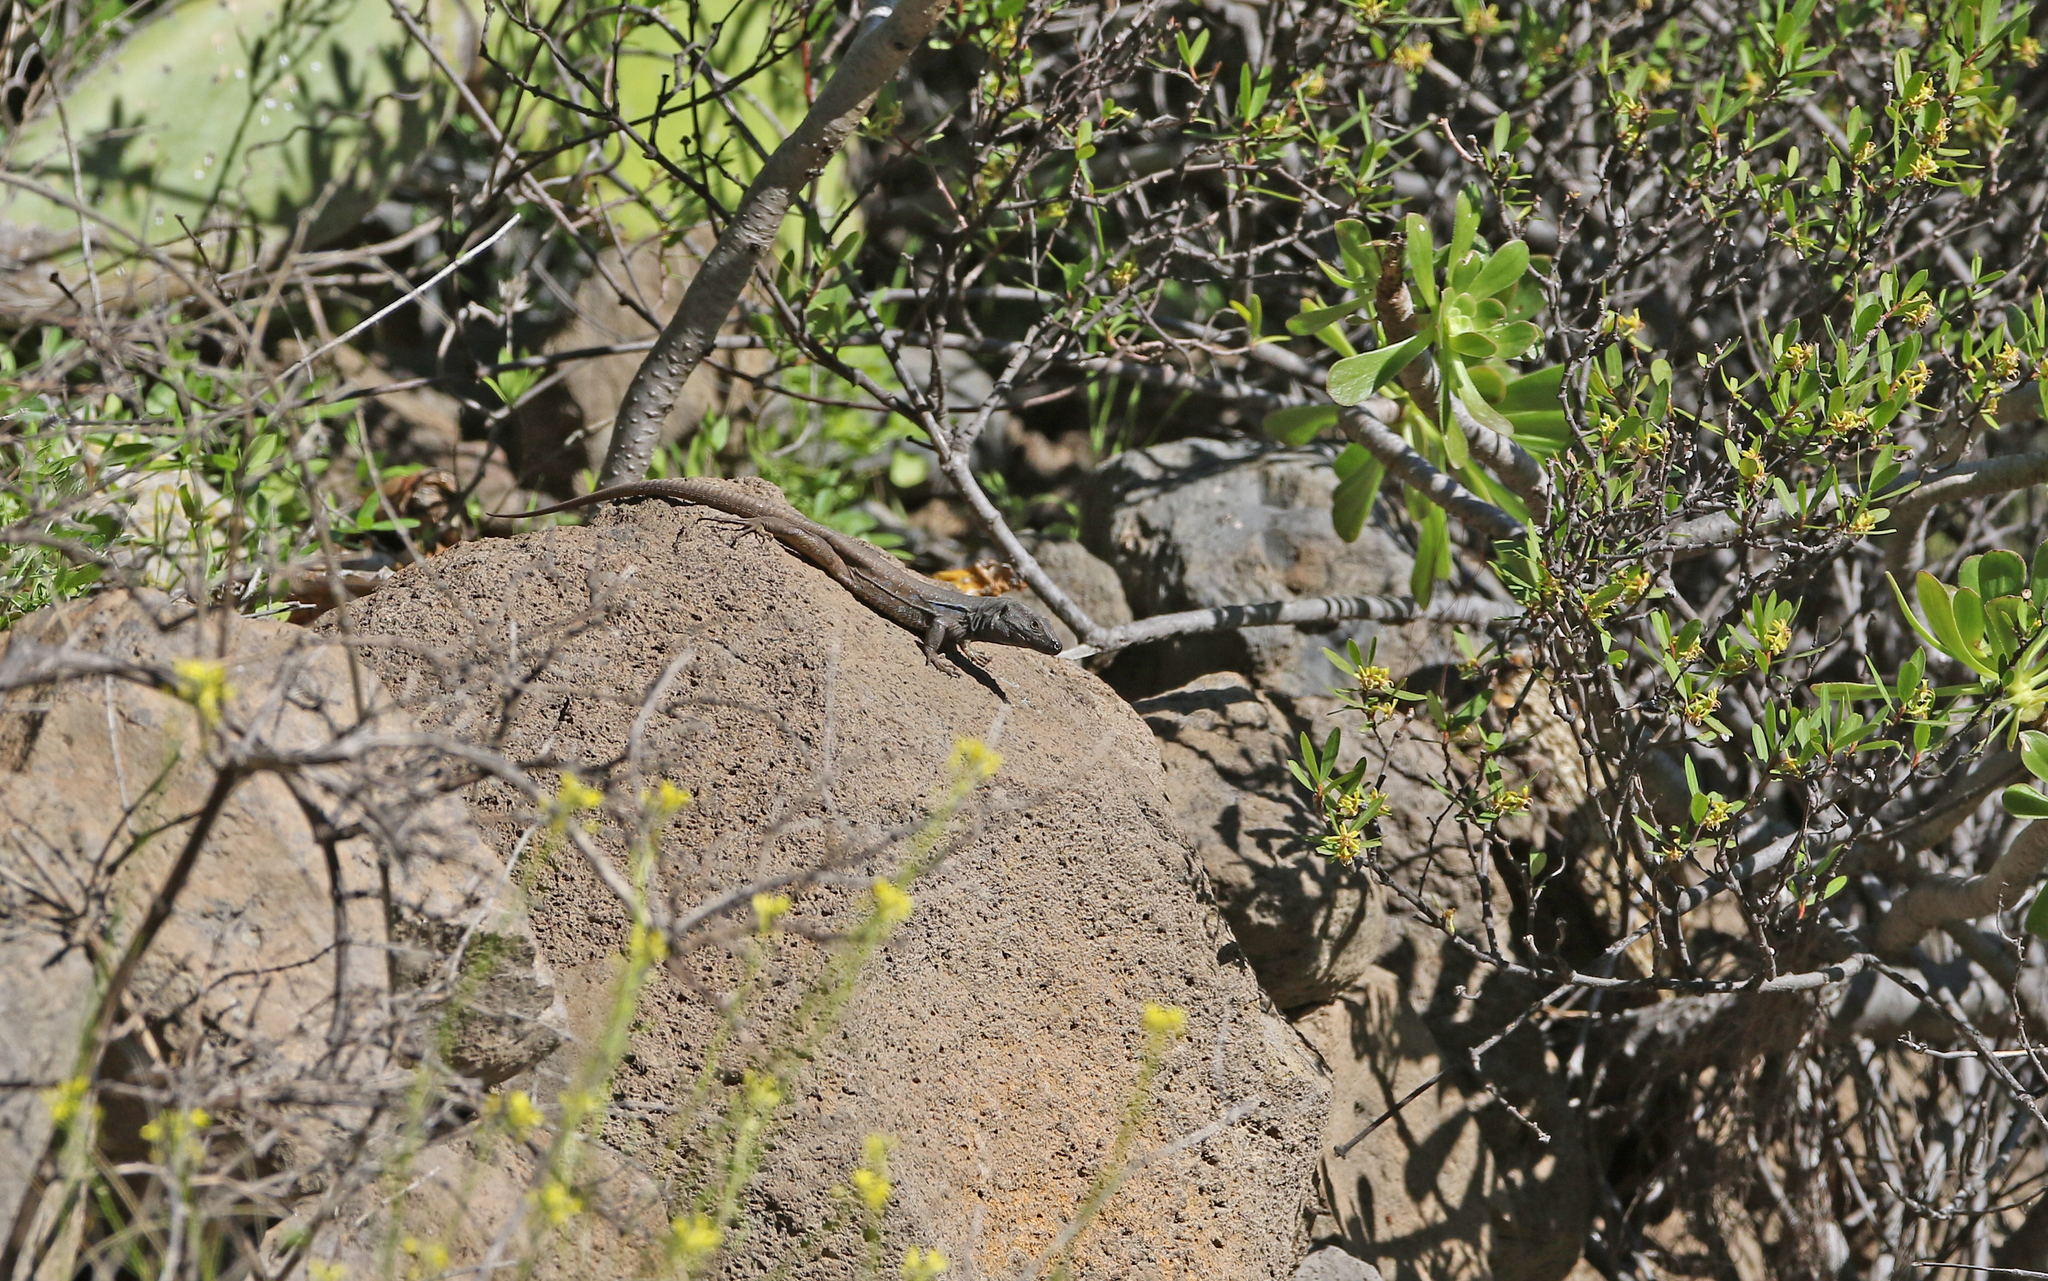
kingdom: Animalia
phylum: Chordata
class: Squamata
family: Lacertidae
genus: Gallotia
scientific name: Gallotia galloti
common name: Gallot's lizard
